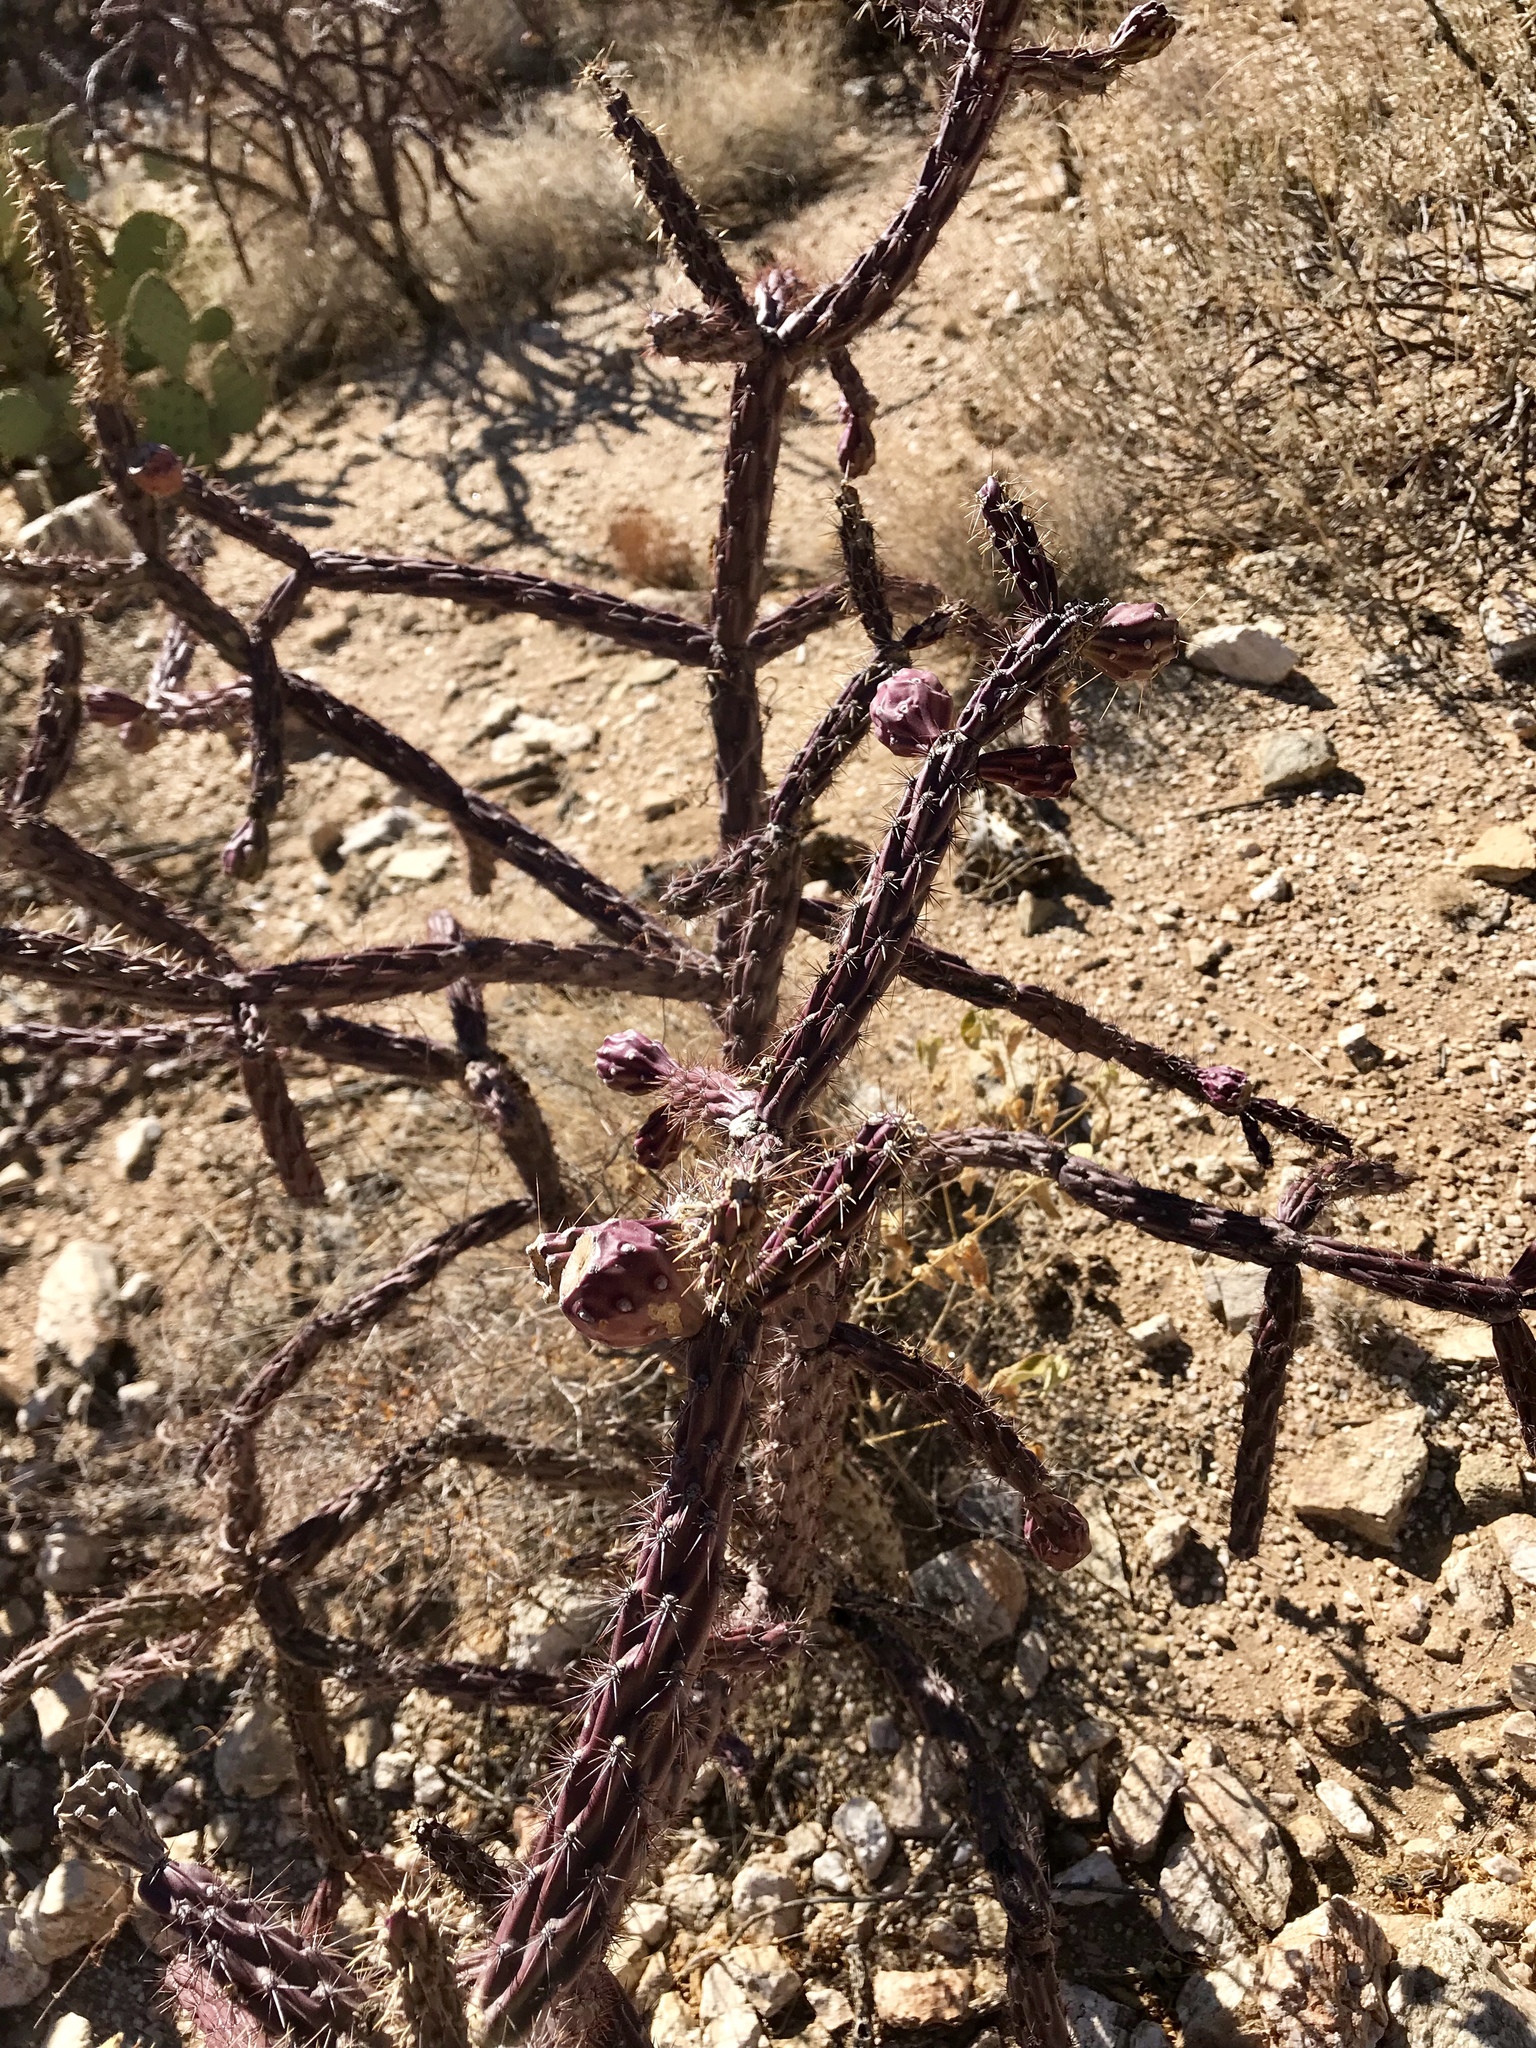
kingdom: Plantae
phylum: Tracheophyta
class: Magnoliopsida
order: Caryophyllales
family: Cactaceae
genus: Cylindropuntia
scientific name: Cylindropuntia thurberi
